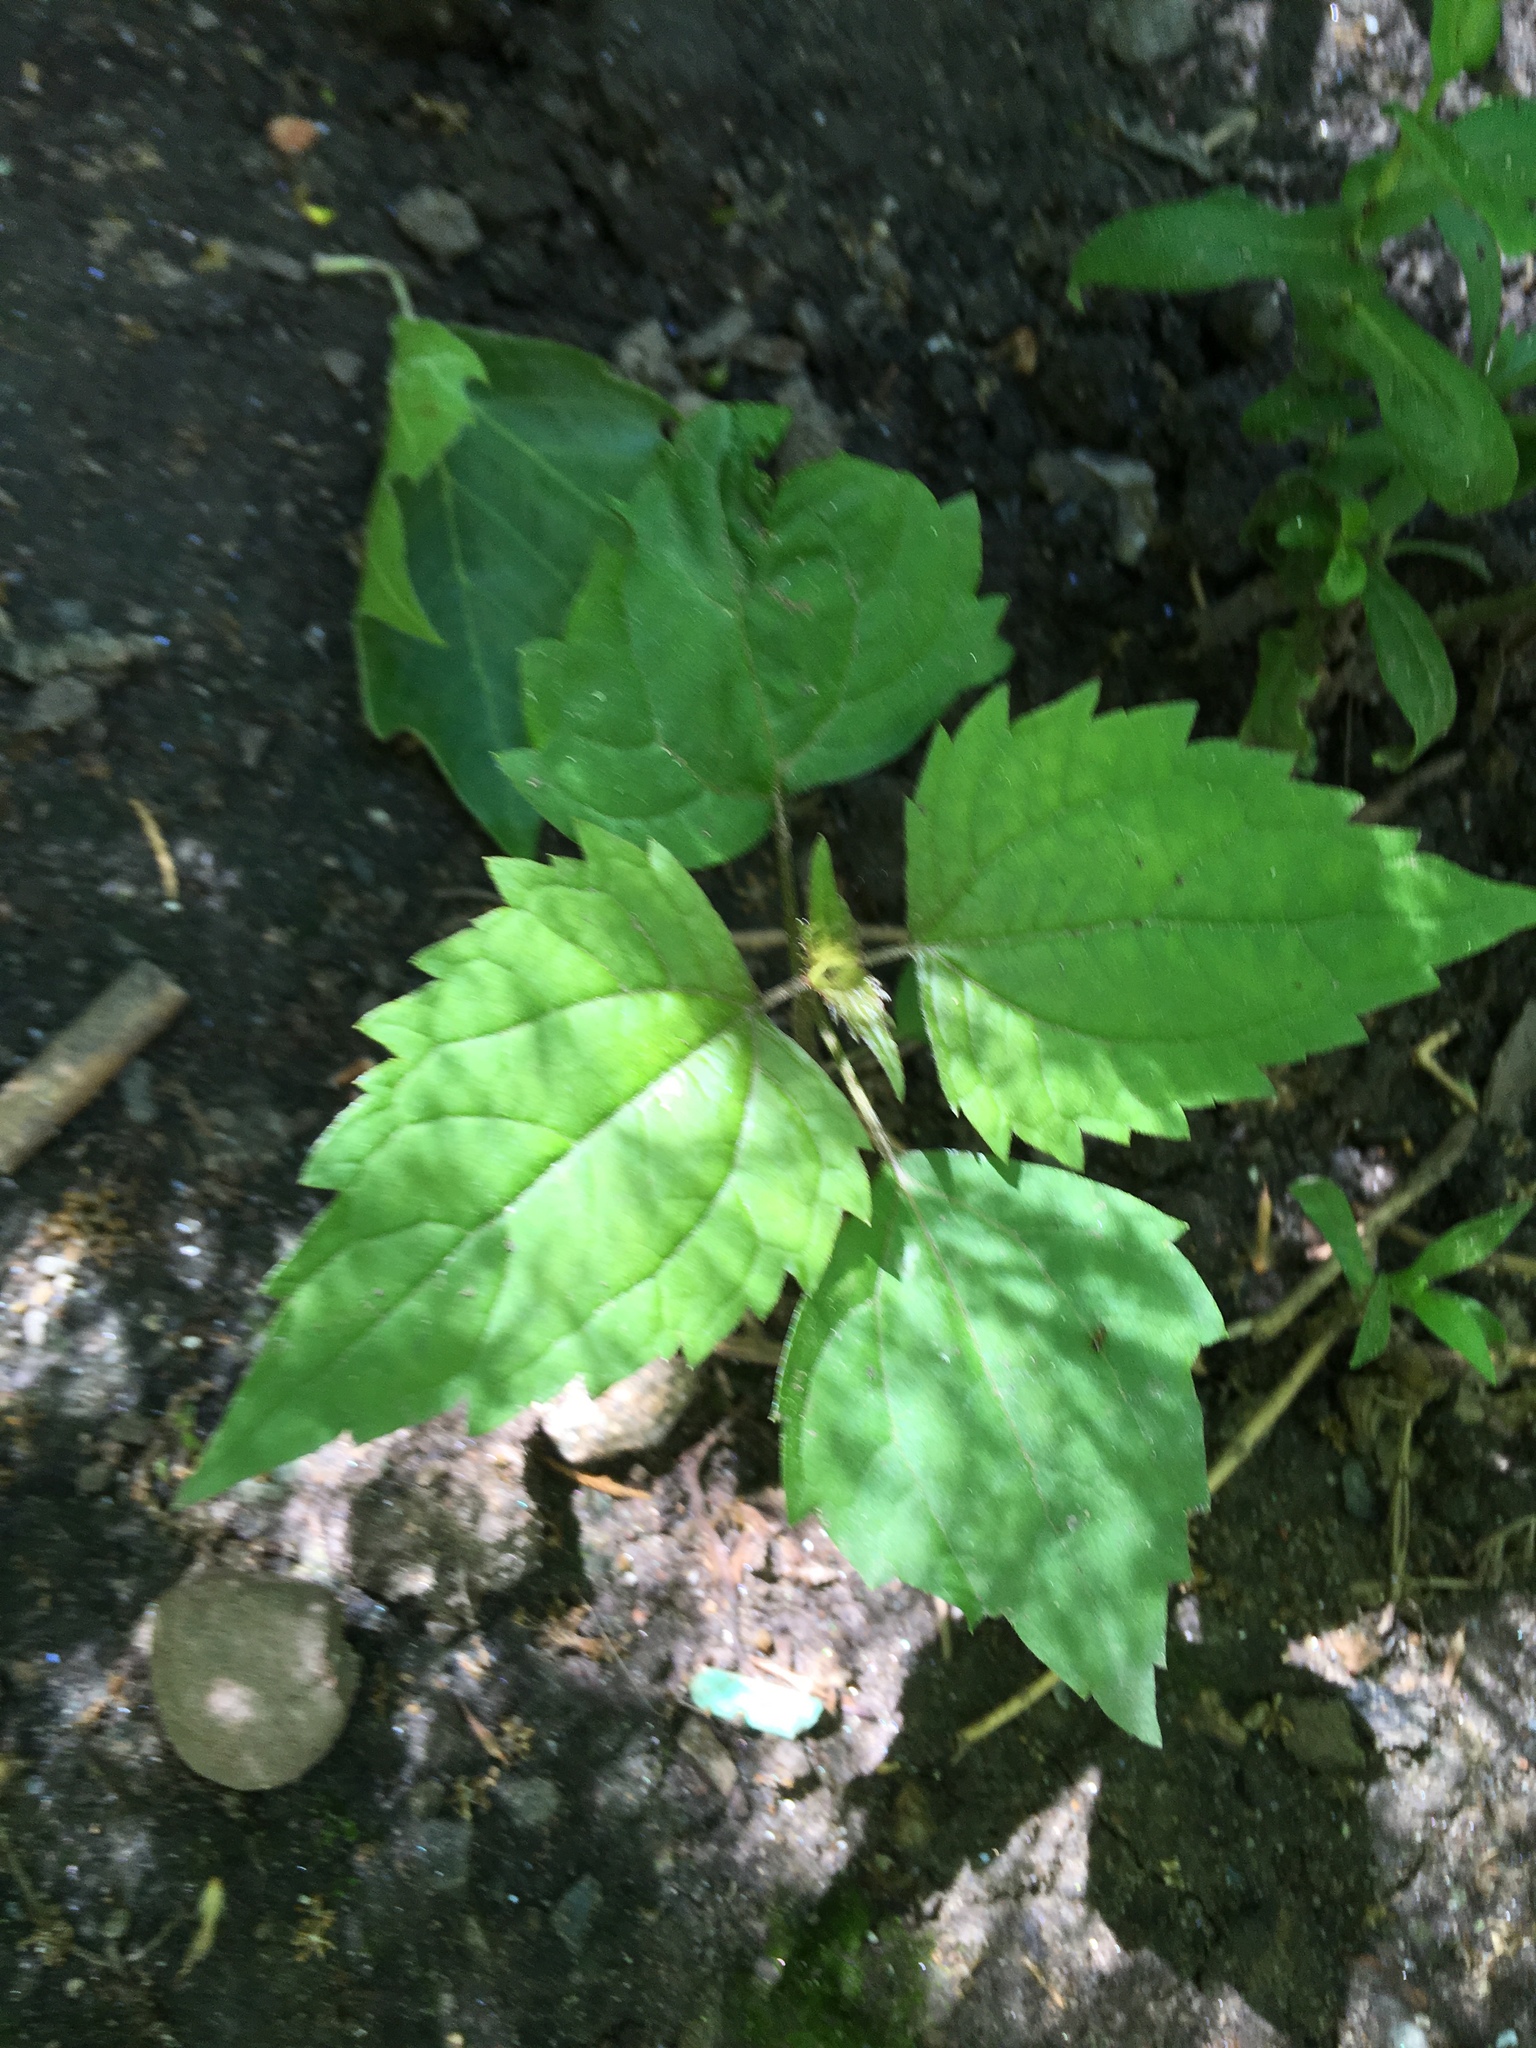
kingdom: Plantae
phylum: Tracheophyta
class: Magnoliopsida
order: Asterales
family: Asteraceae
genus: Ageratina
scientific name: Ageratina altissima
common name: White snakeroot
